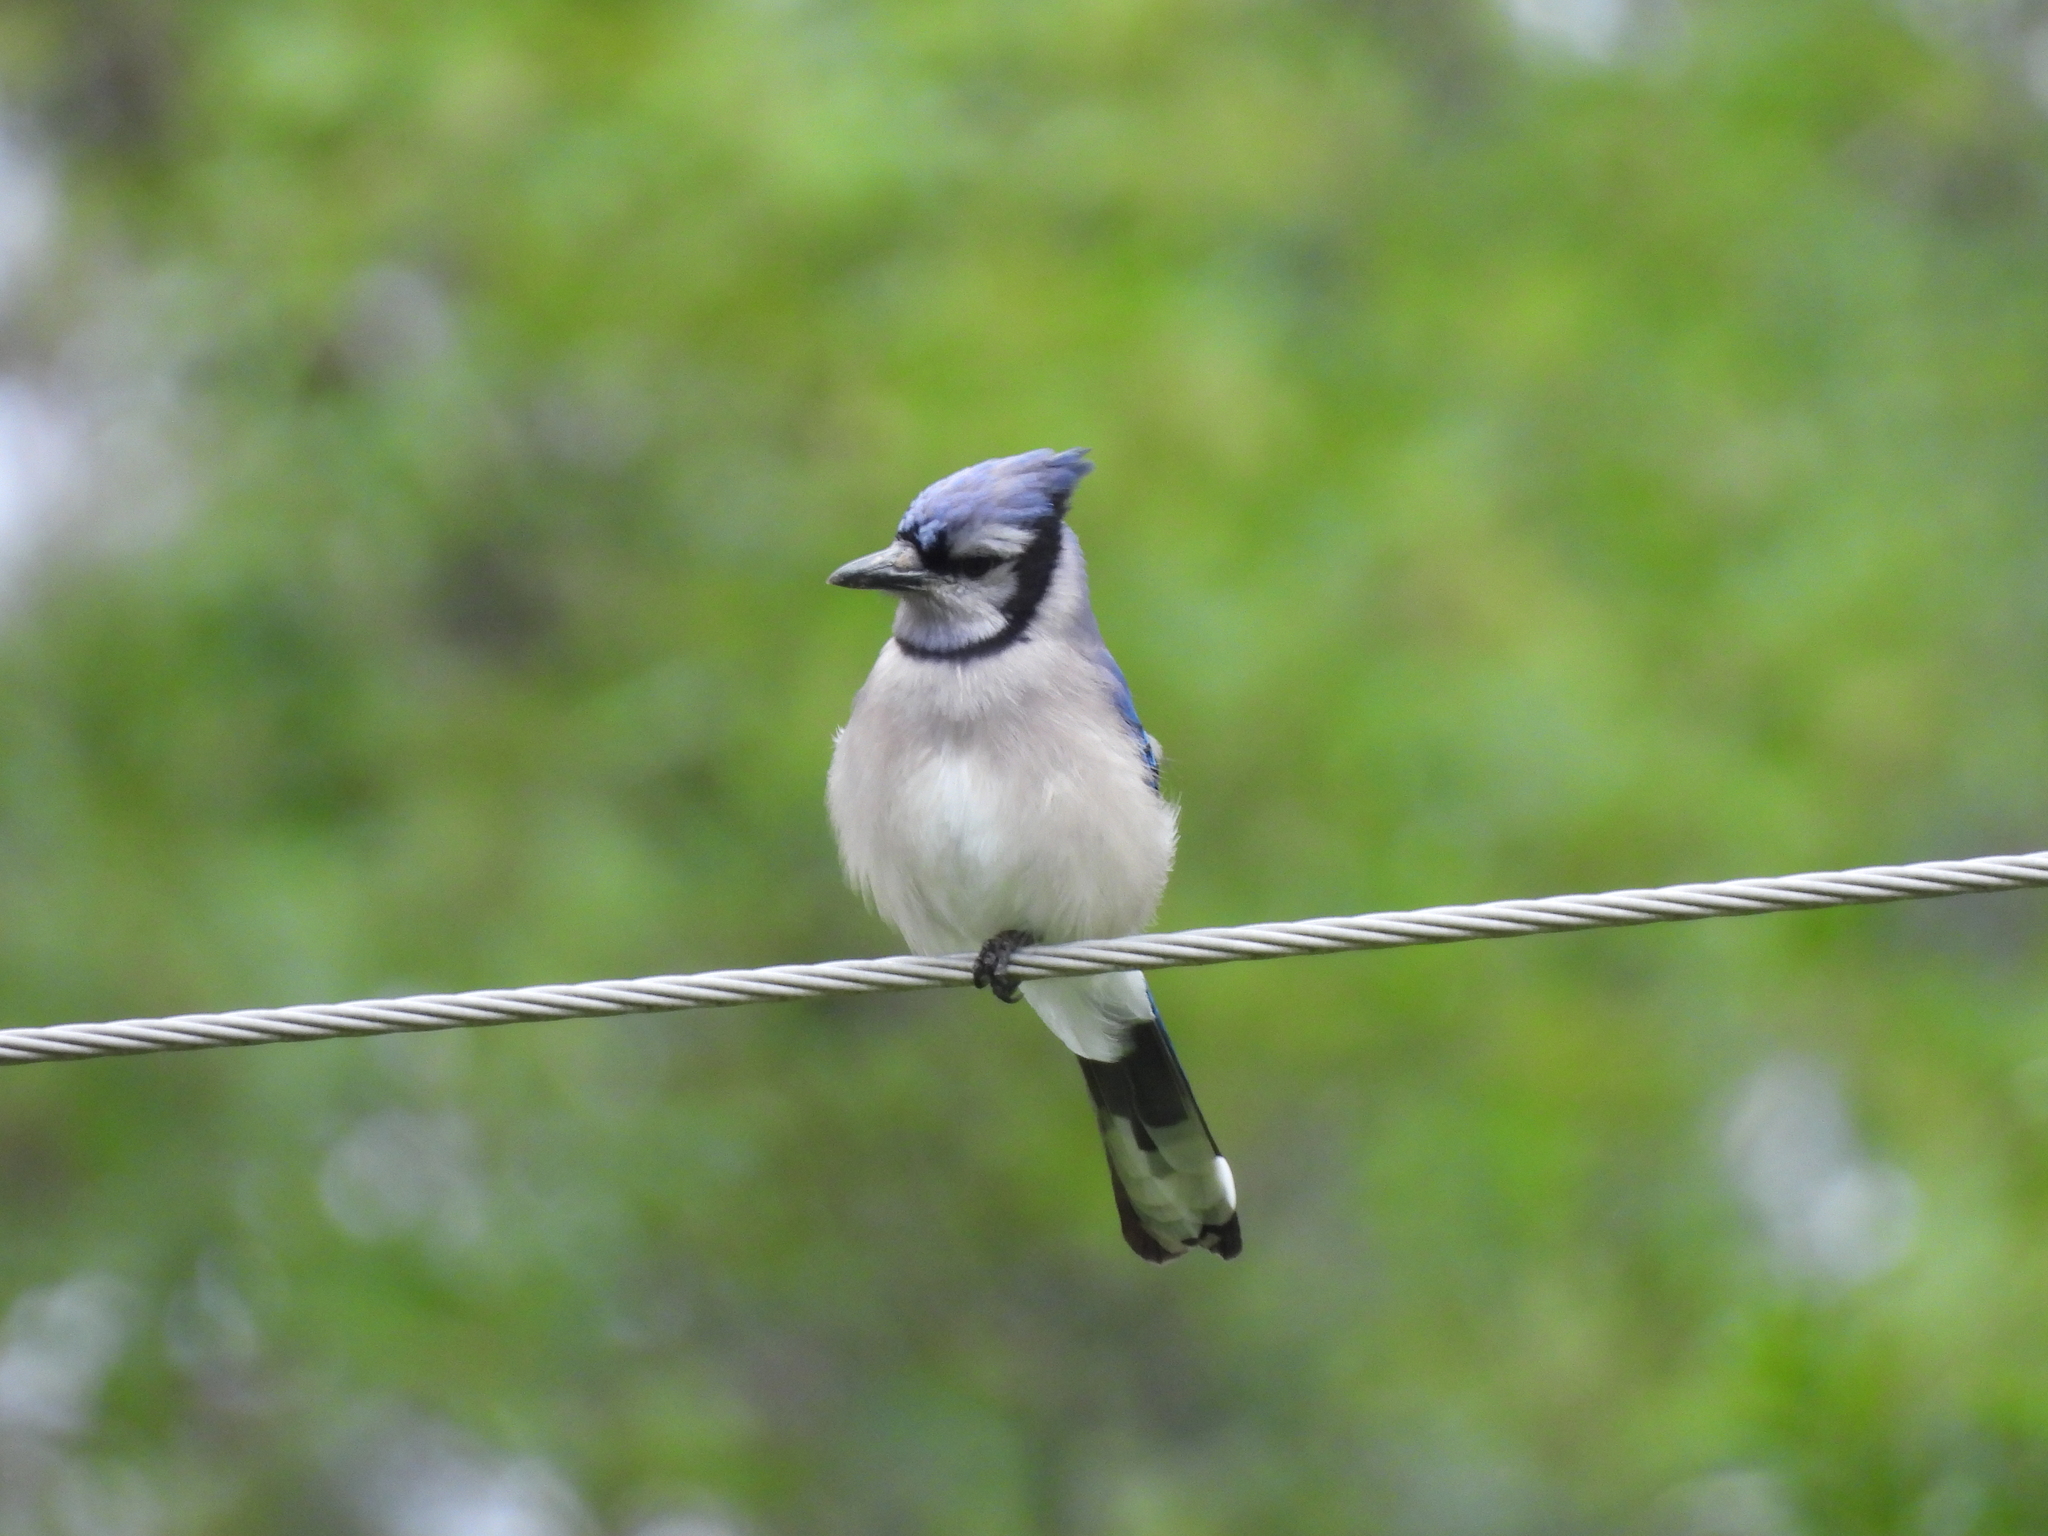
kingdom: Animalia
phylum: Chordata
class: Aves
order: Passeriformes
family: Corvidae
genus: Cyanocitta
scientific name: Cyanocitta cristata
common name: Blue jay
